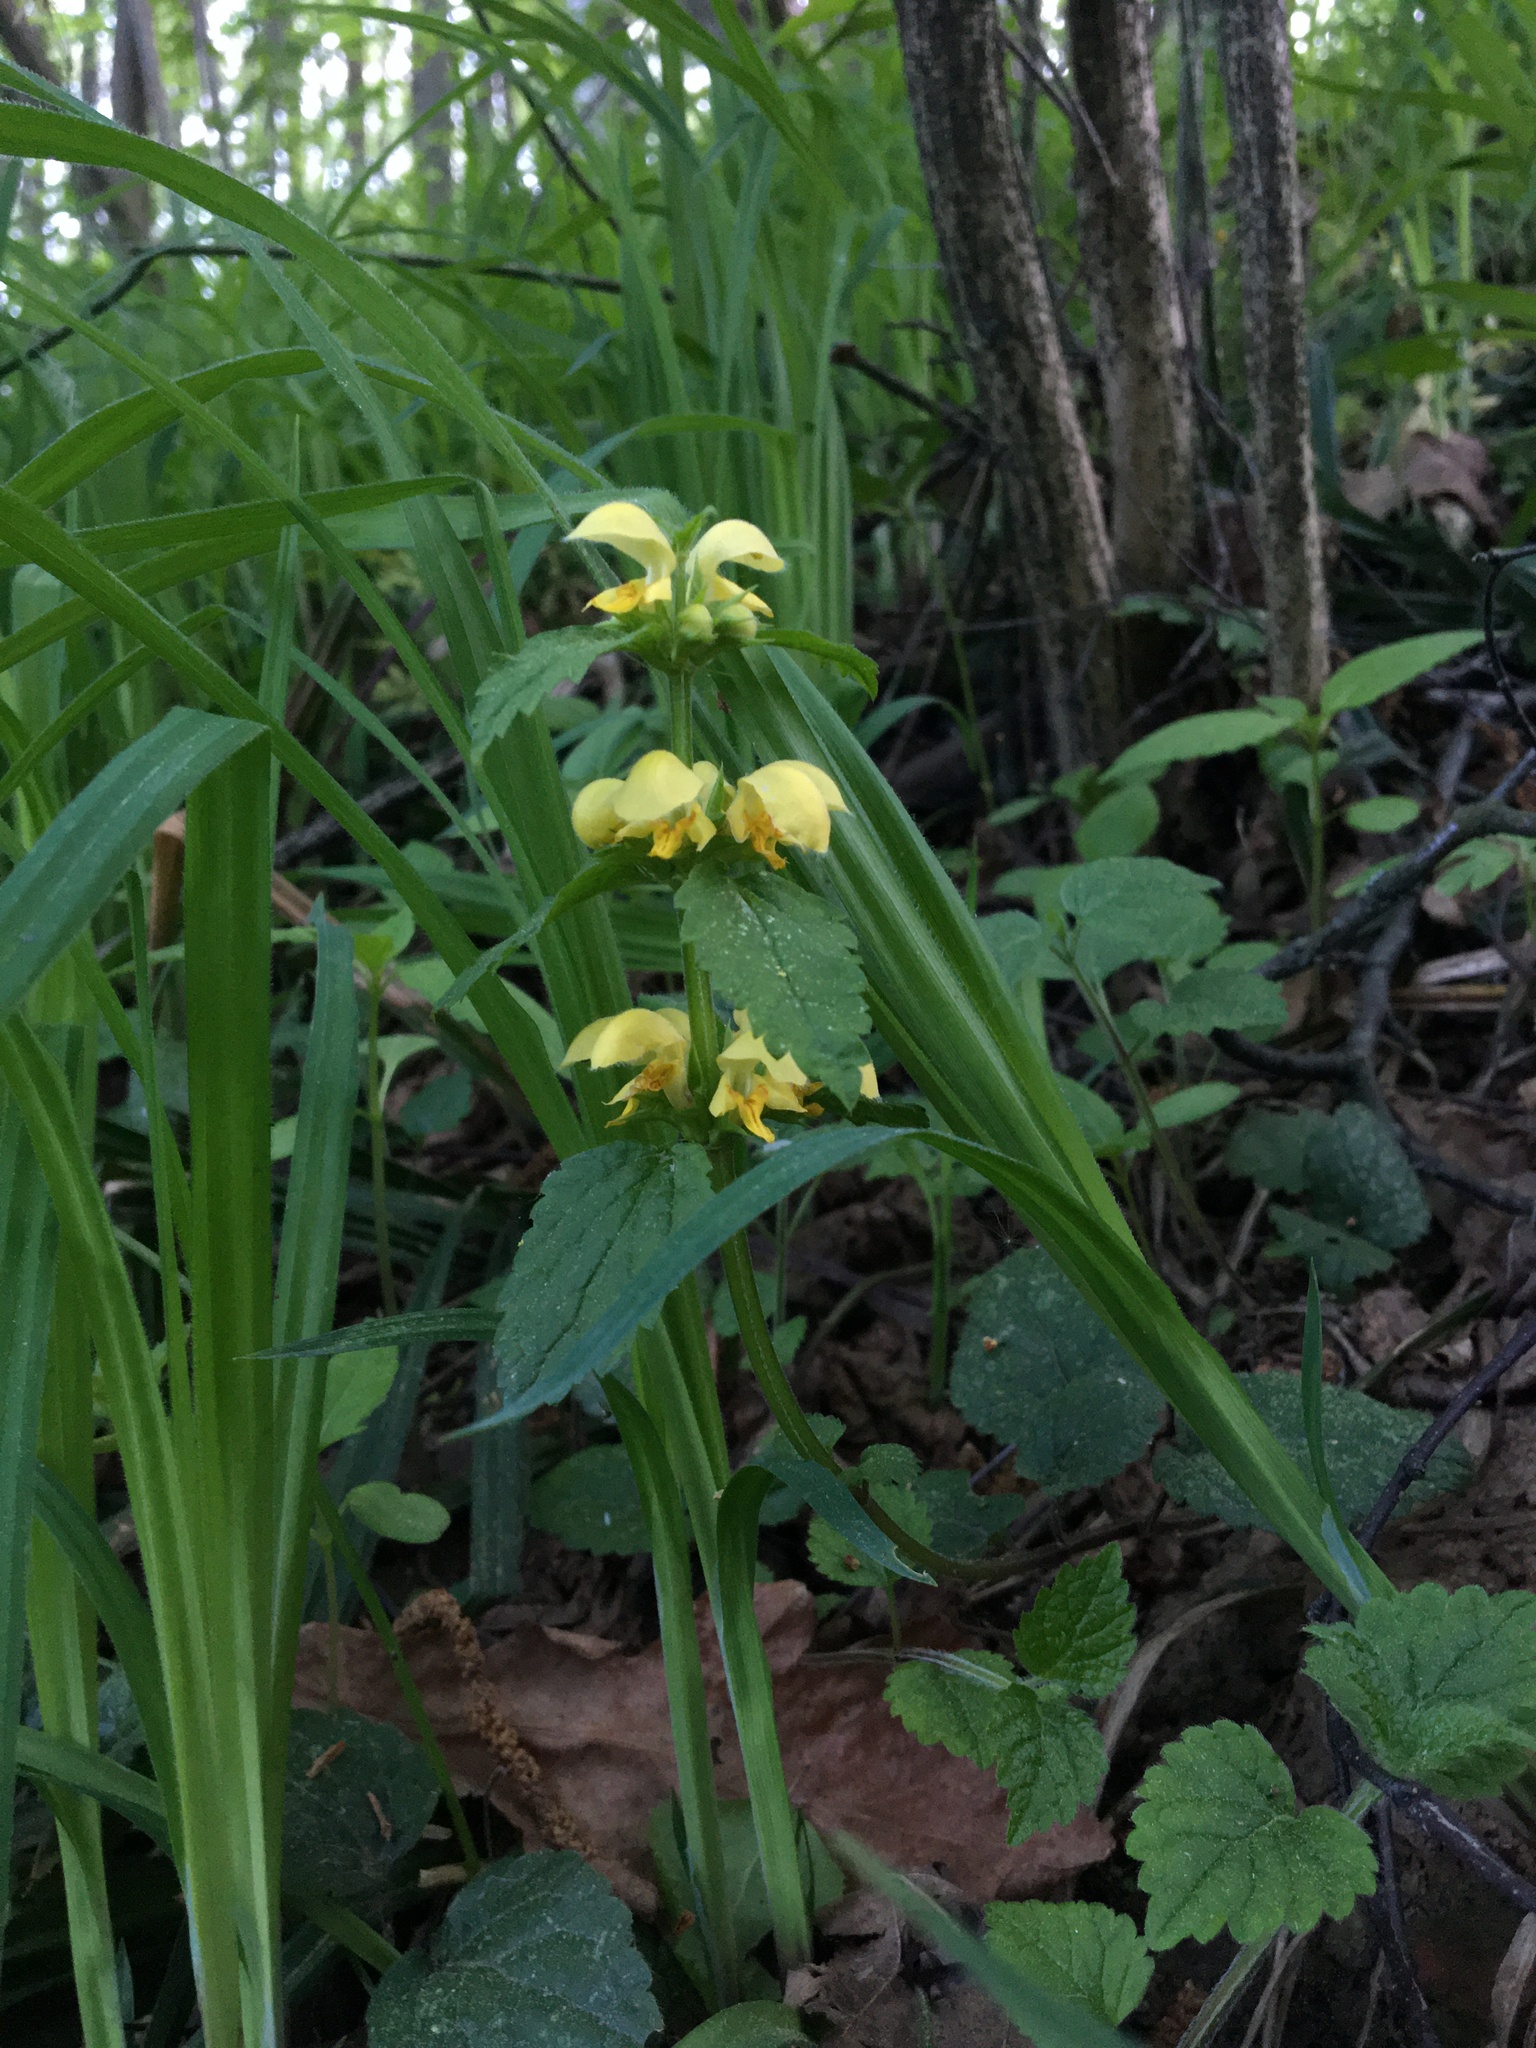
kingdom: Plantae
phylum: Tracheophyta
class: Magnoliopsida
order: Lamiales
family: Lamiaceae
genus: Lamium
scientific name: Lamium galeobdolon
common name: Yellow archangel
